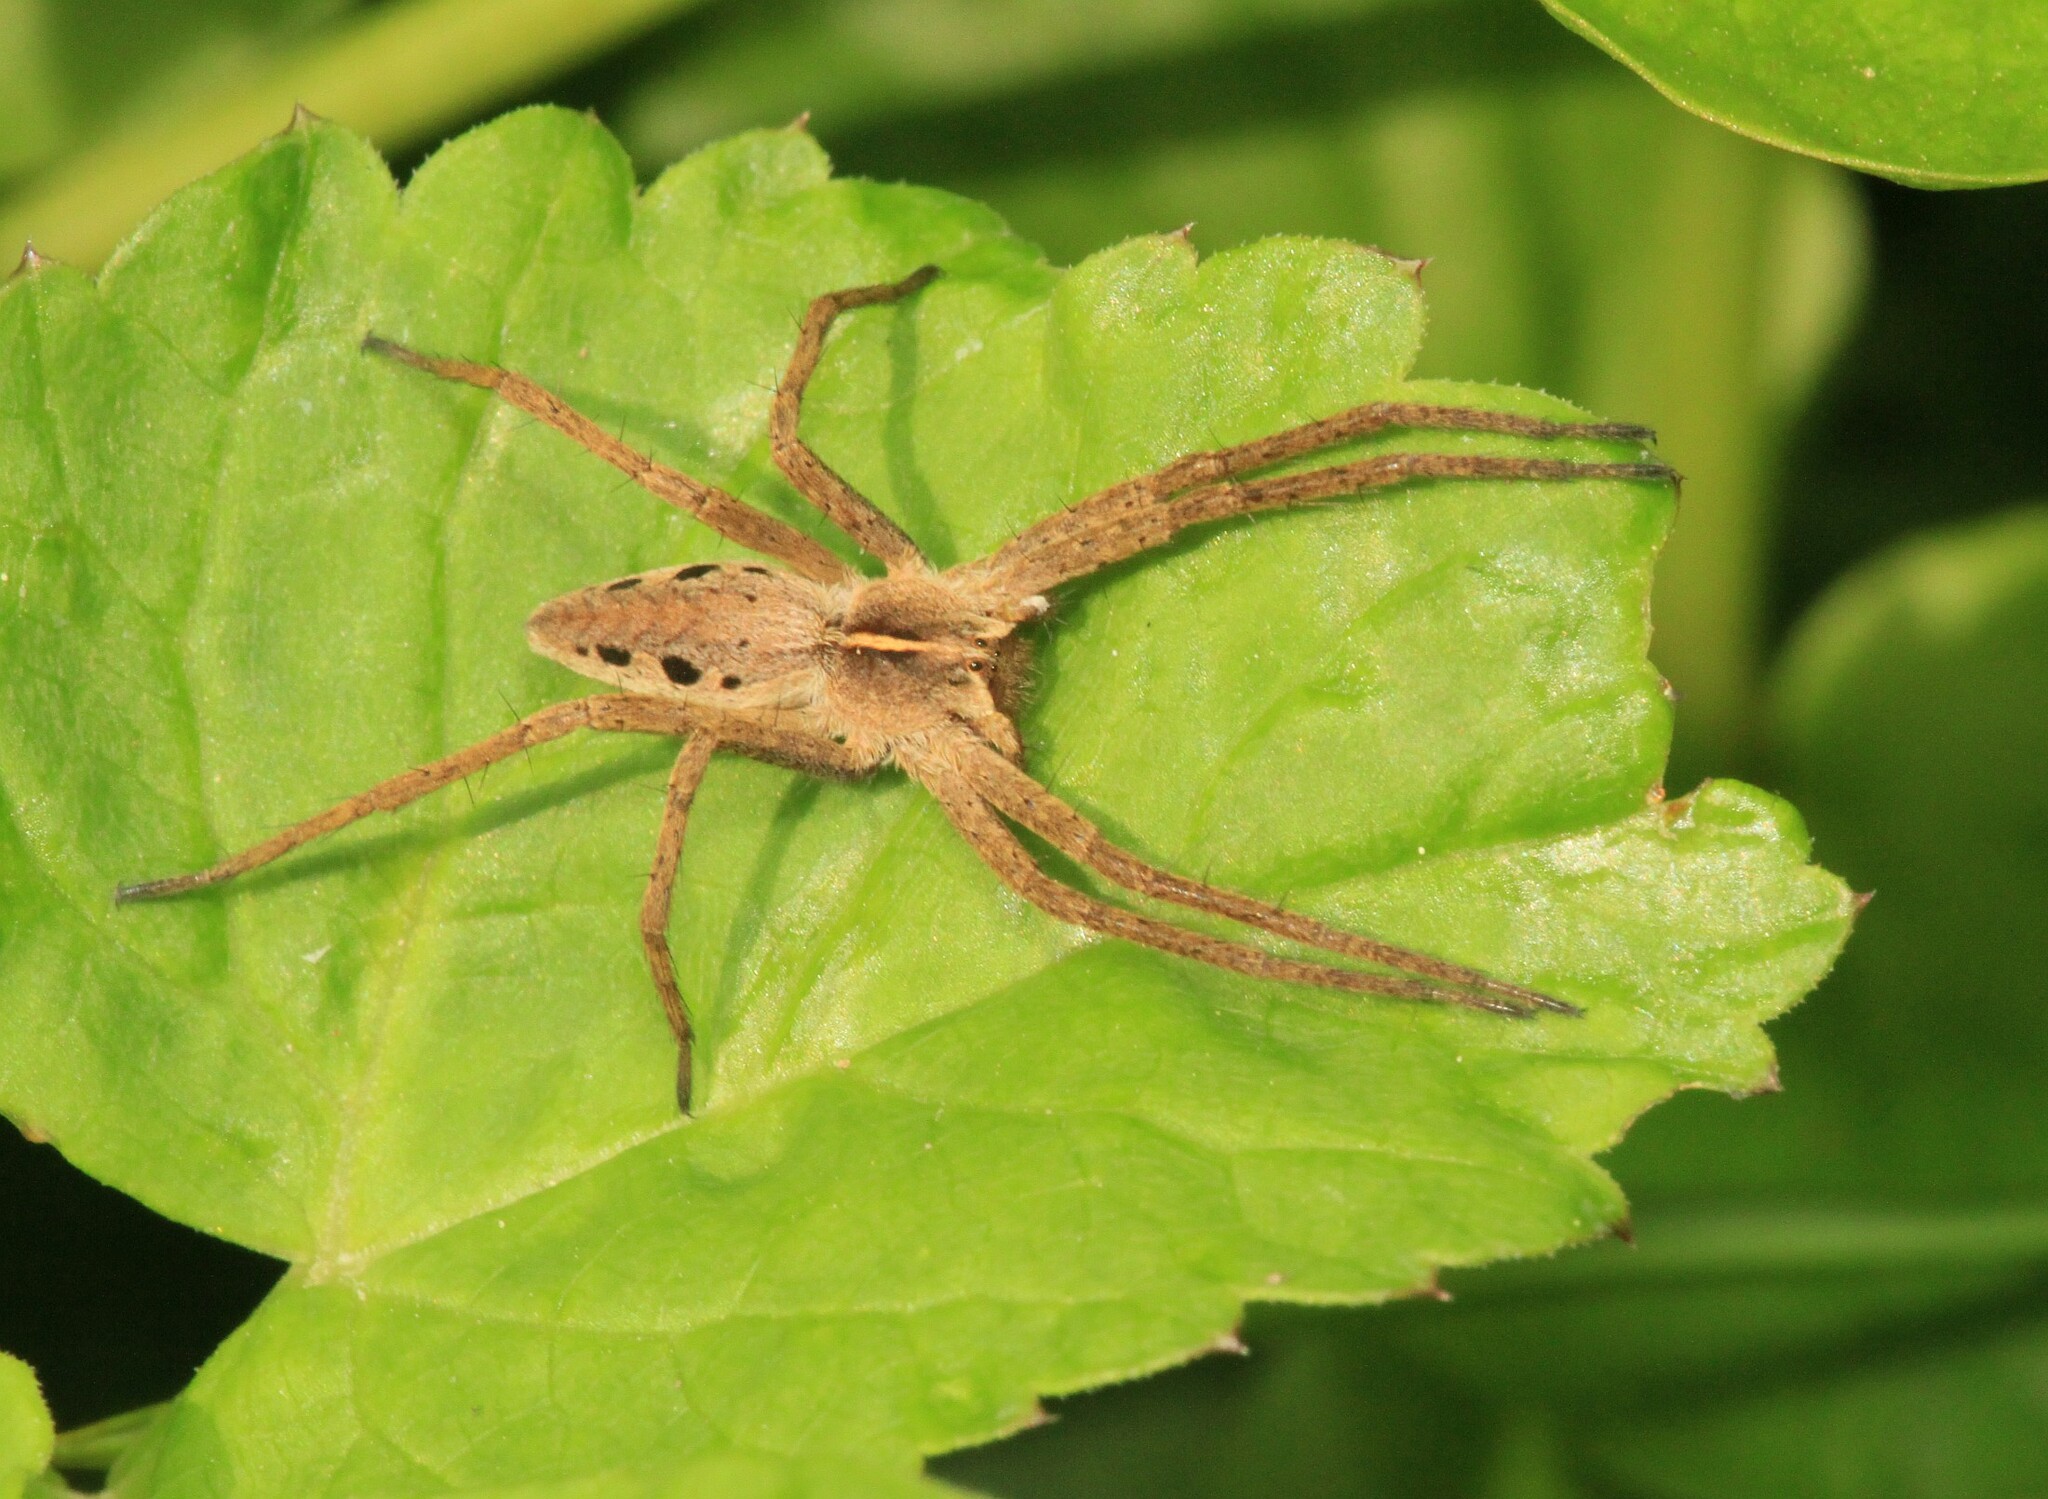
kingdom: Animalia
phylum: Arthropoda
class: Arachnida
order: Araneae
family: Pisauridae
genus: Pisaura
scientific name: Pisaura mirabilis
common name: Tent spider
